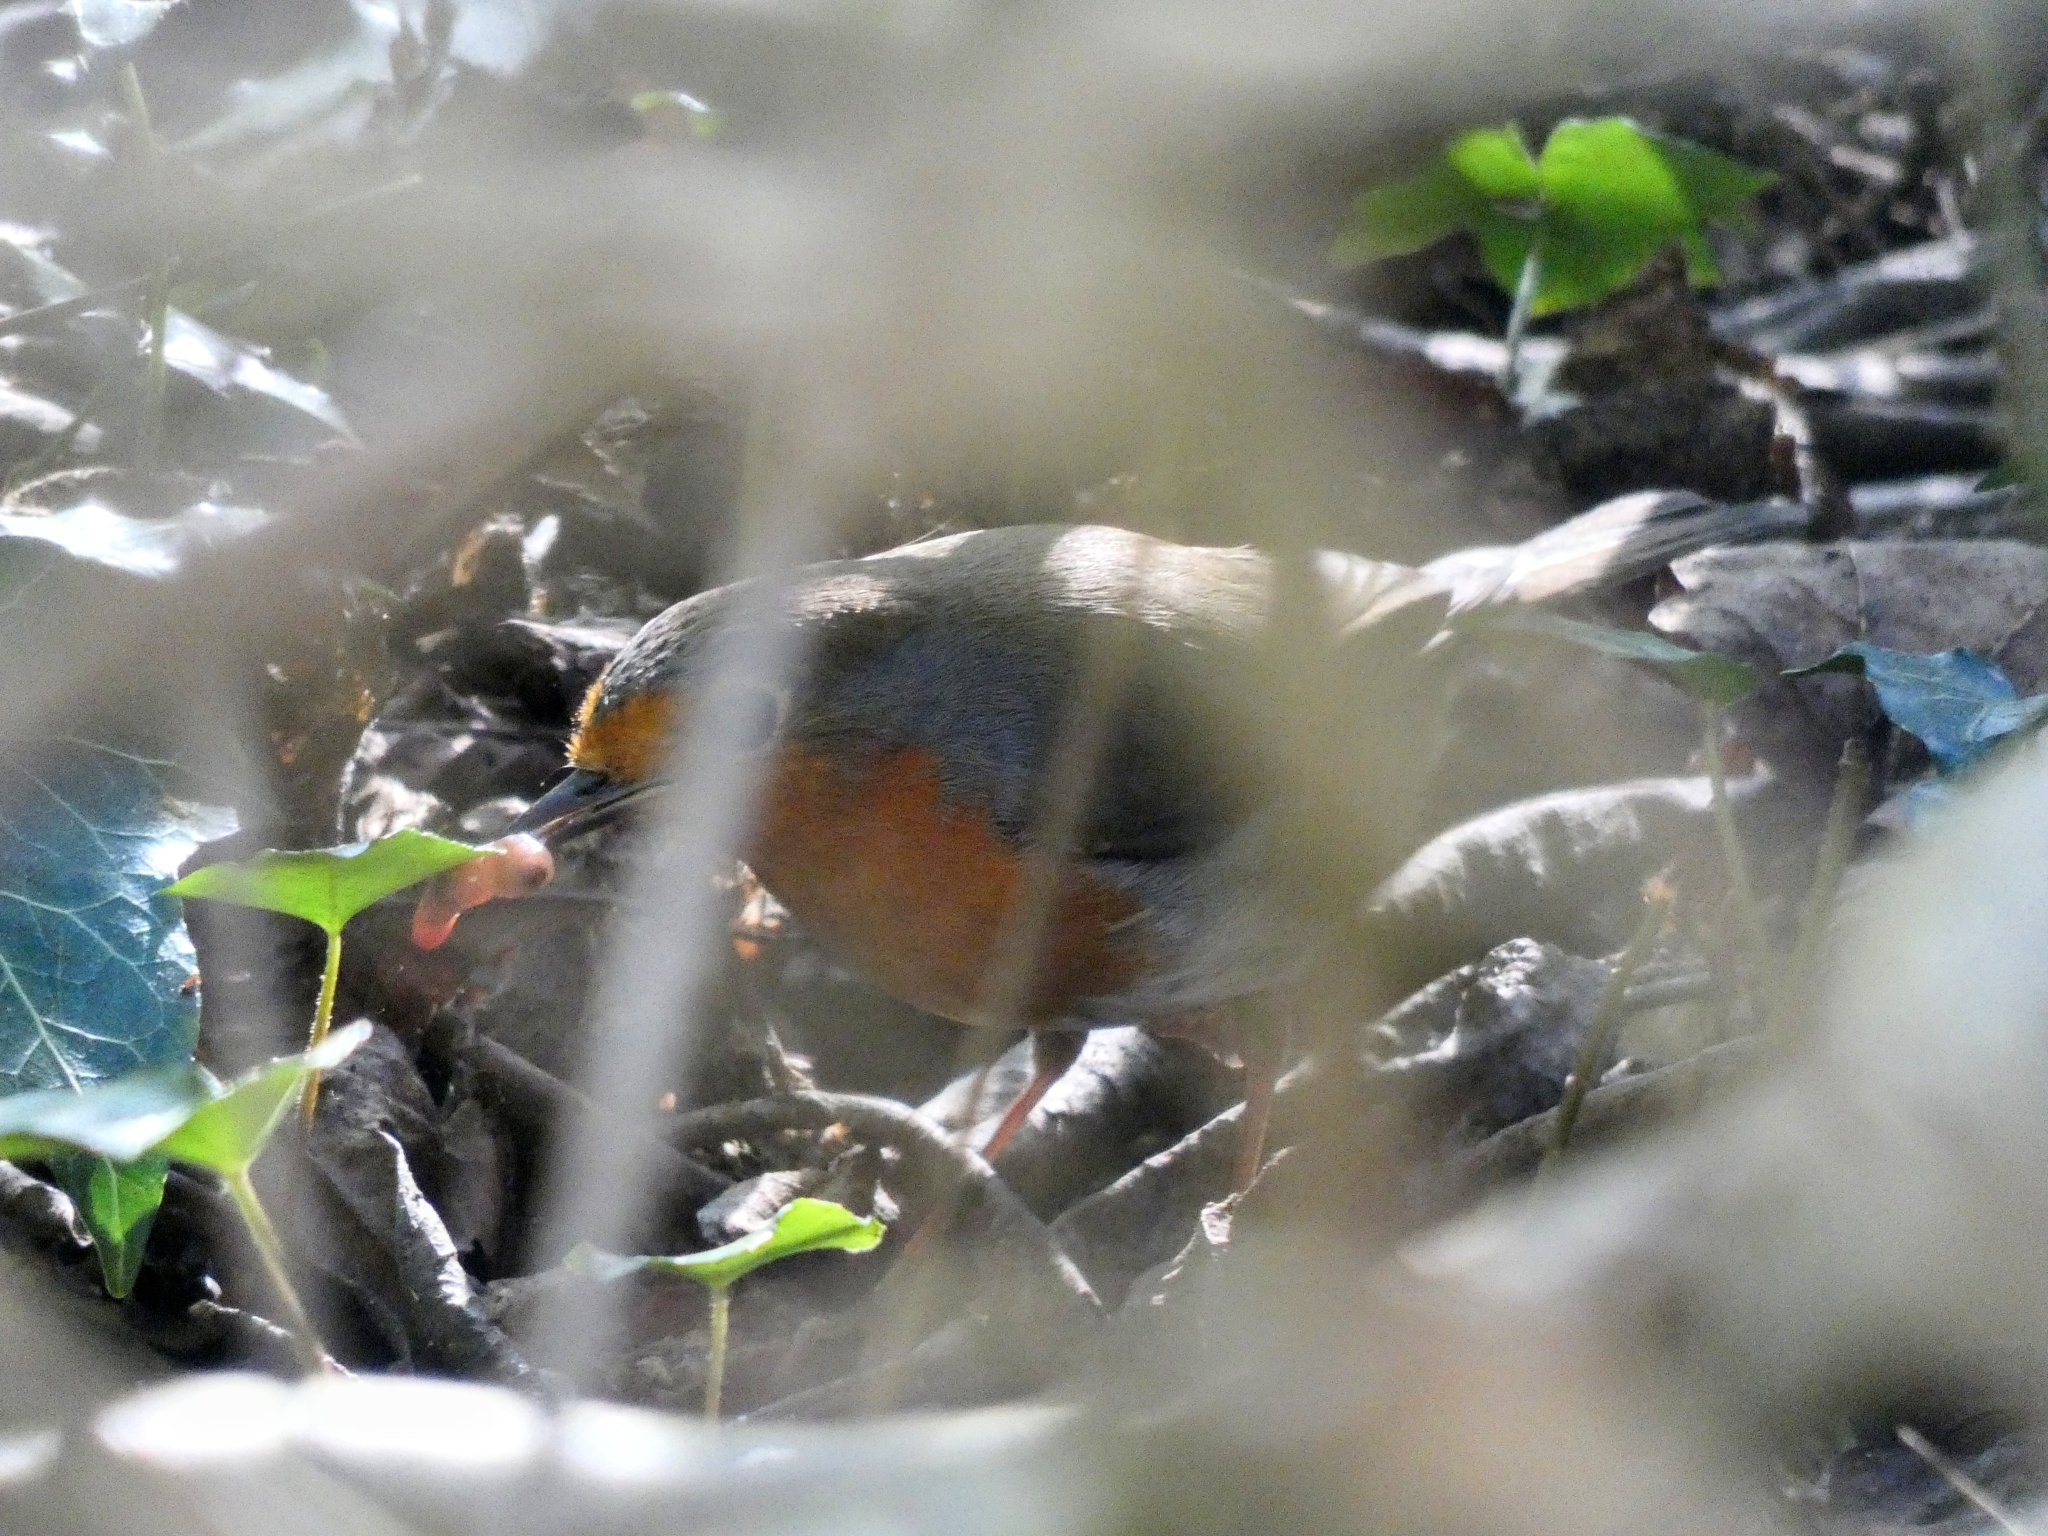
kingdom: Animalia
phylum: Chordata
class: Aves
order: Passeriformes
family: Muscicapidae
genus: Erithacus
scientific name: Erithacus rubecula
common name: European robin
